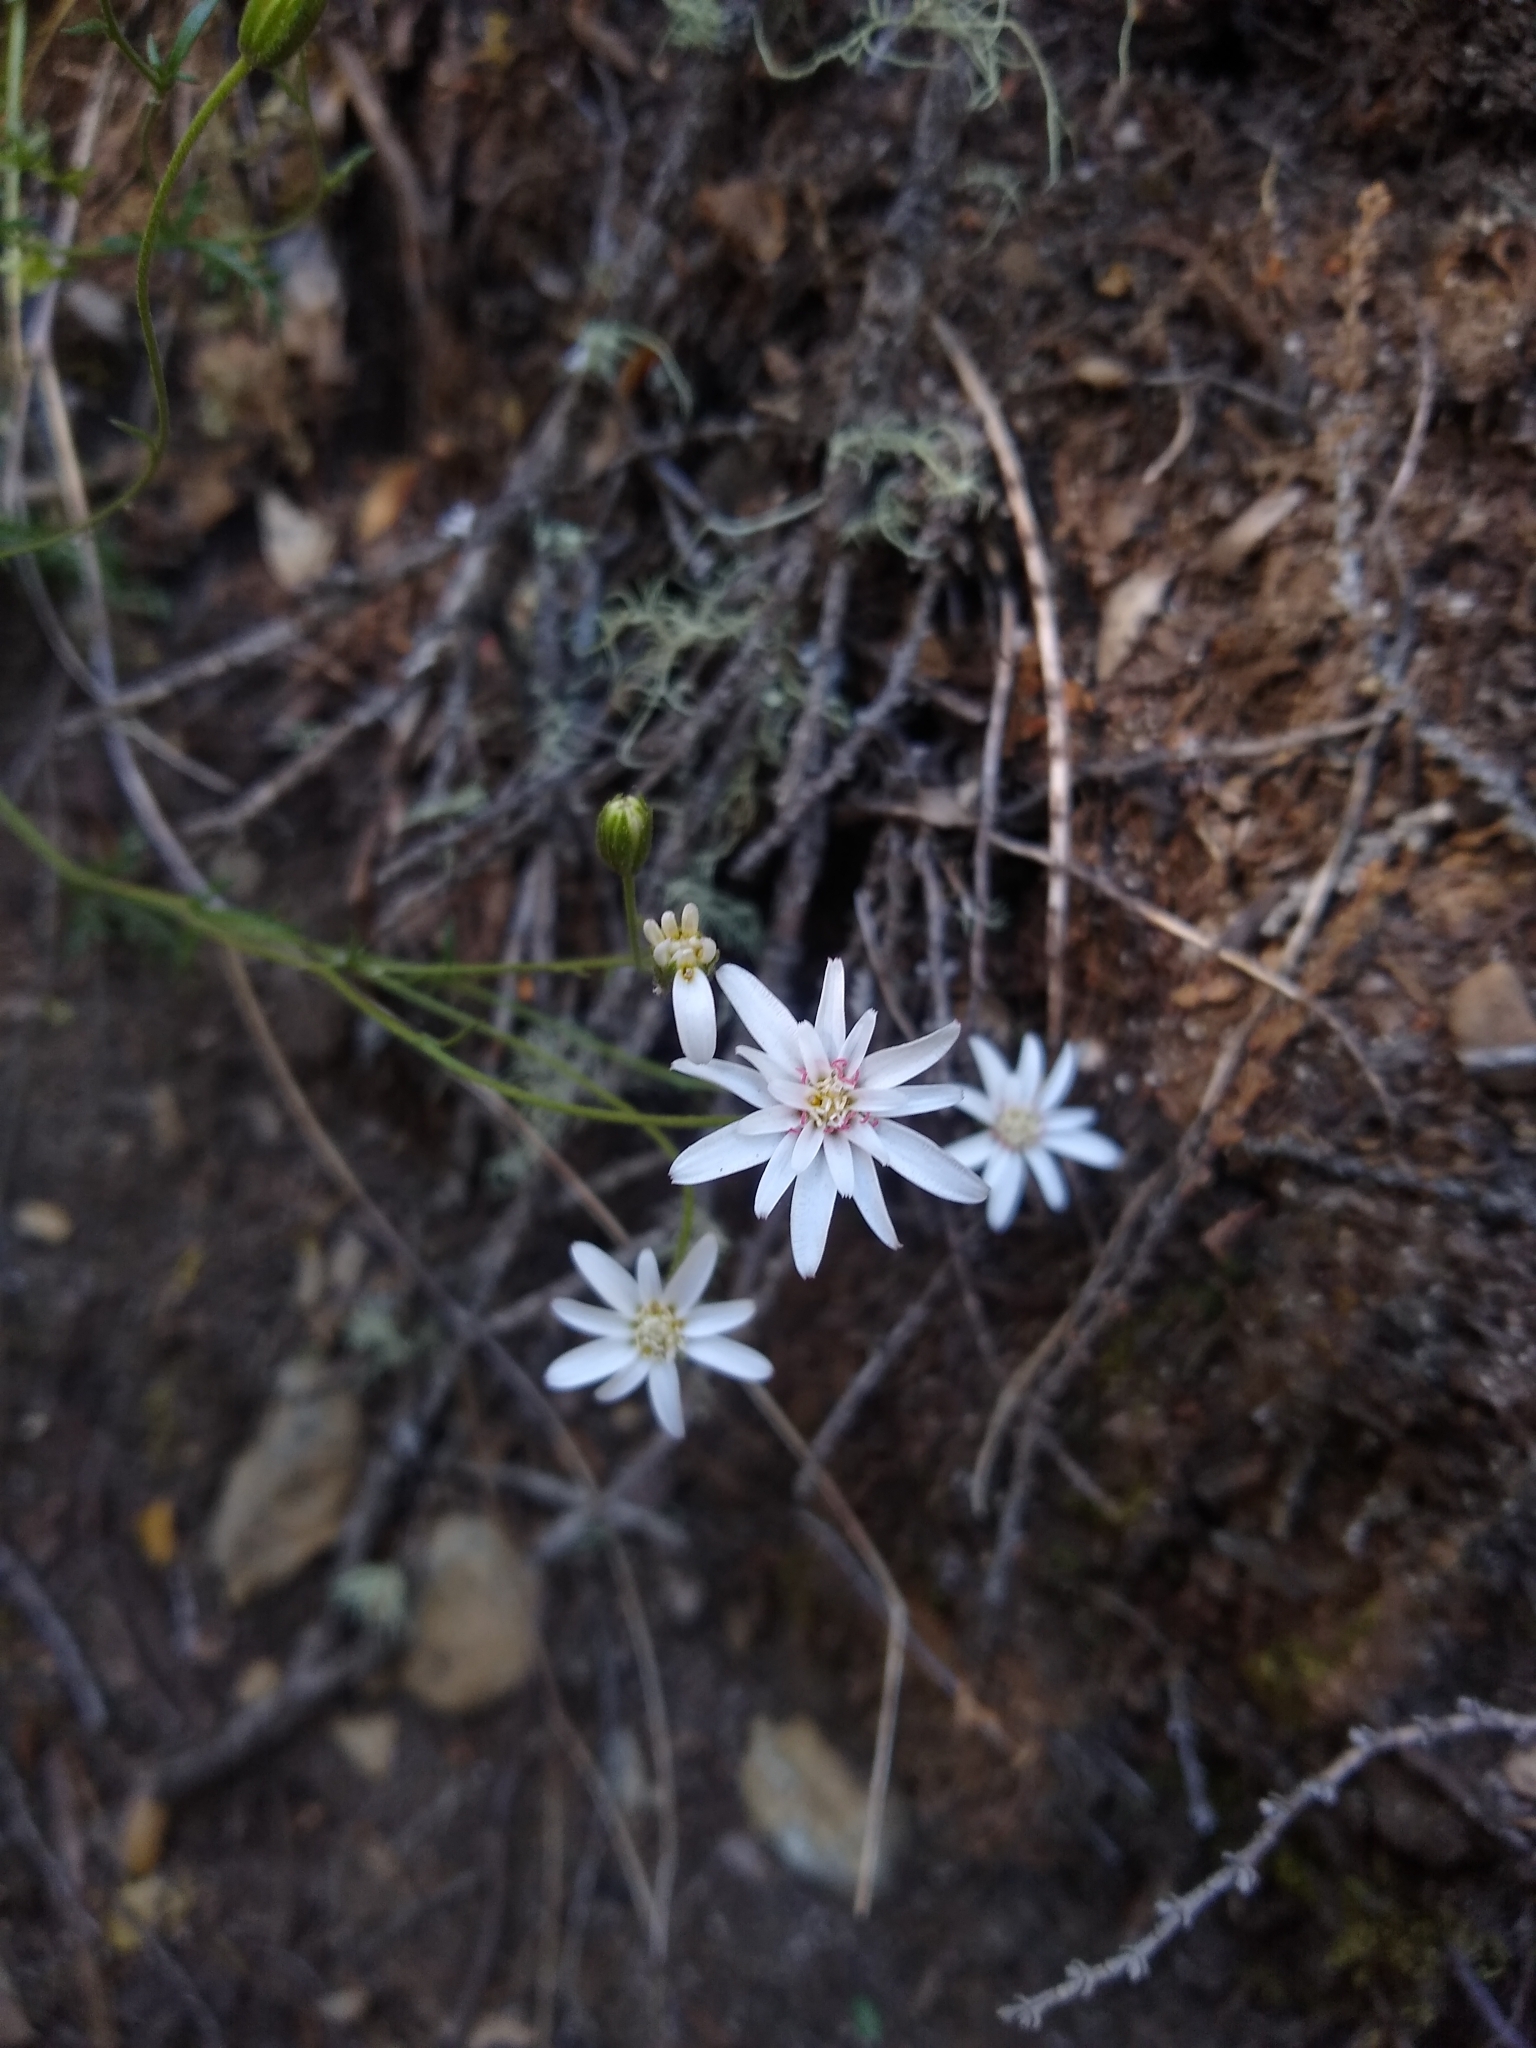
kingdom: Plantae
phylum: Tracheophyta
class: Magnoliopsida
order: Asterales
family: Asteraceae
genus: Leucheria
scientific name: Leucheria achillaeifolia
